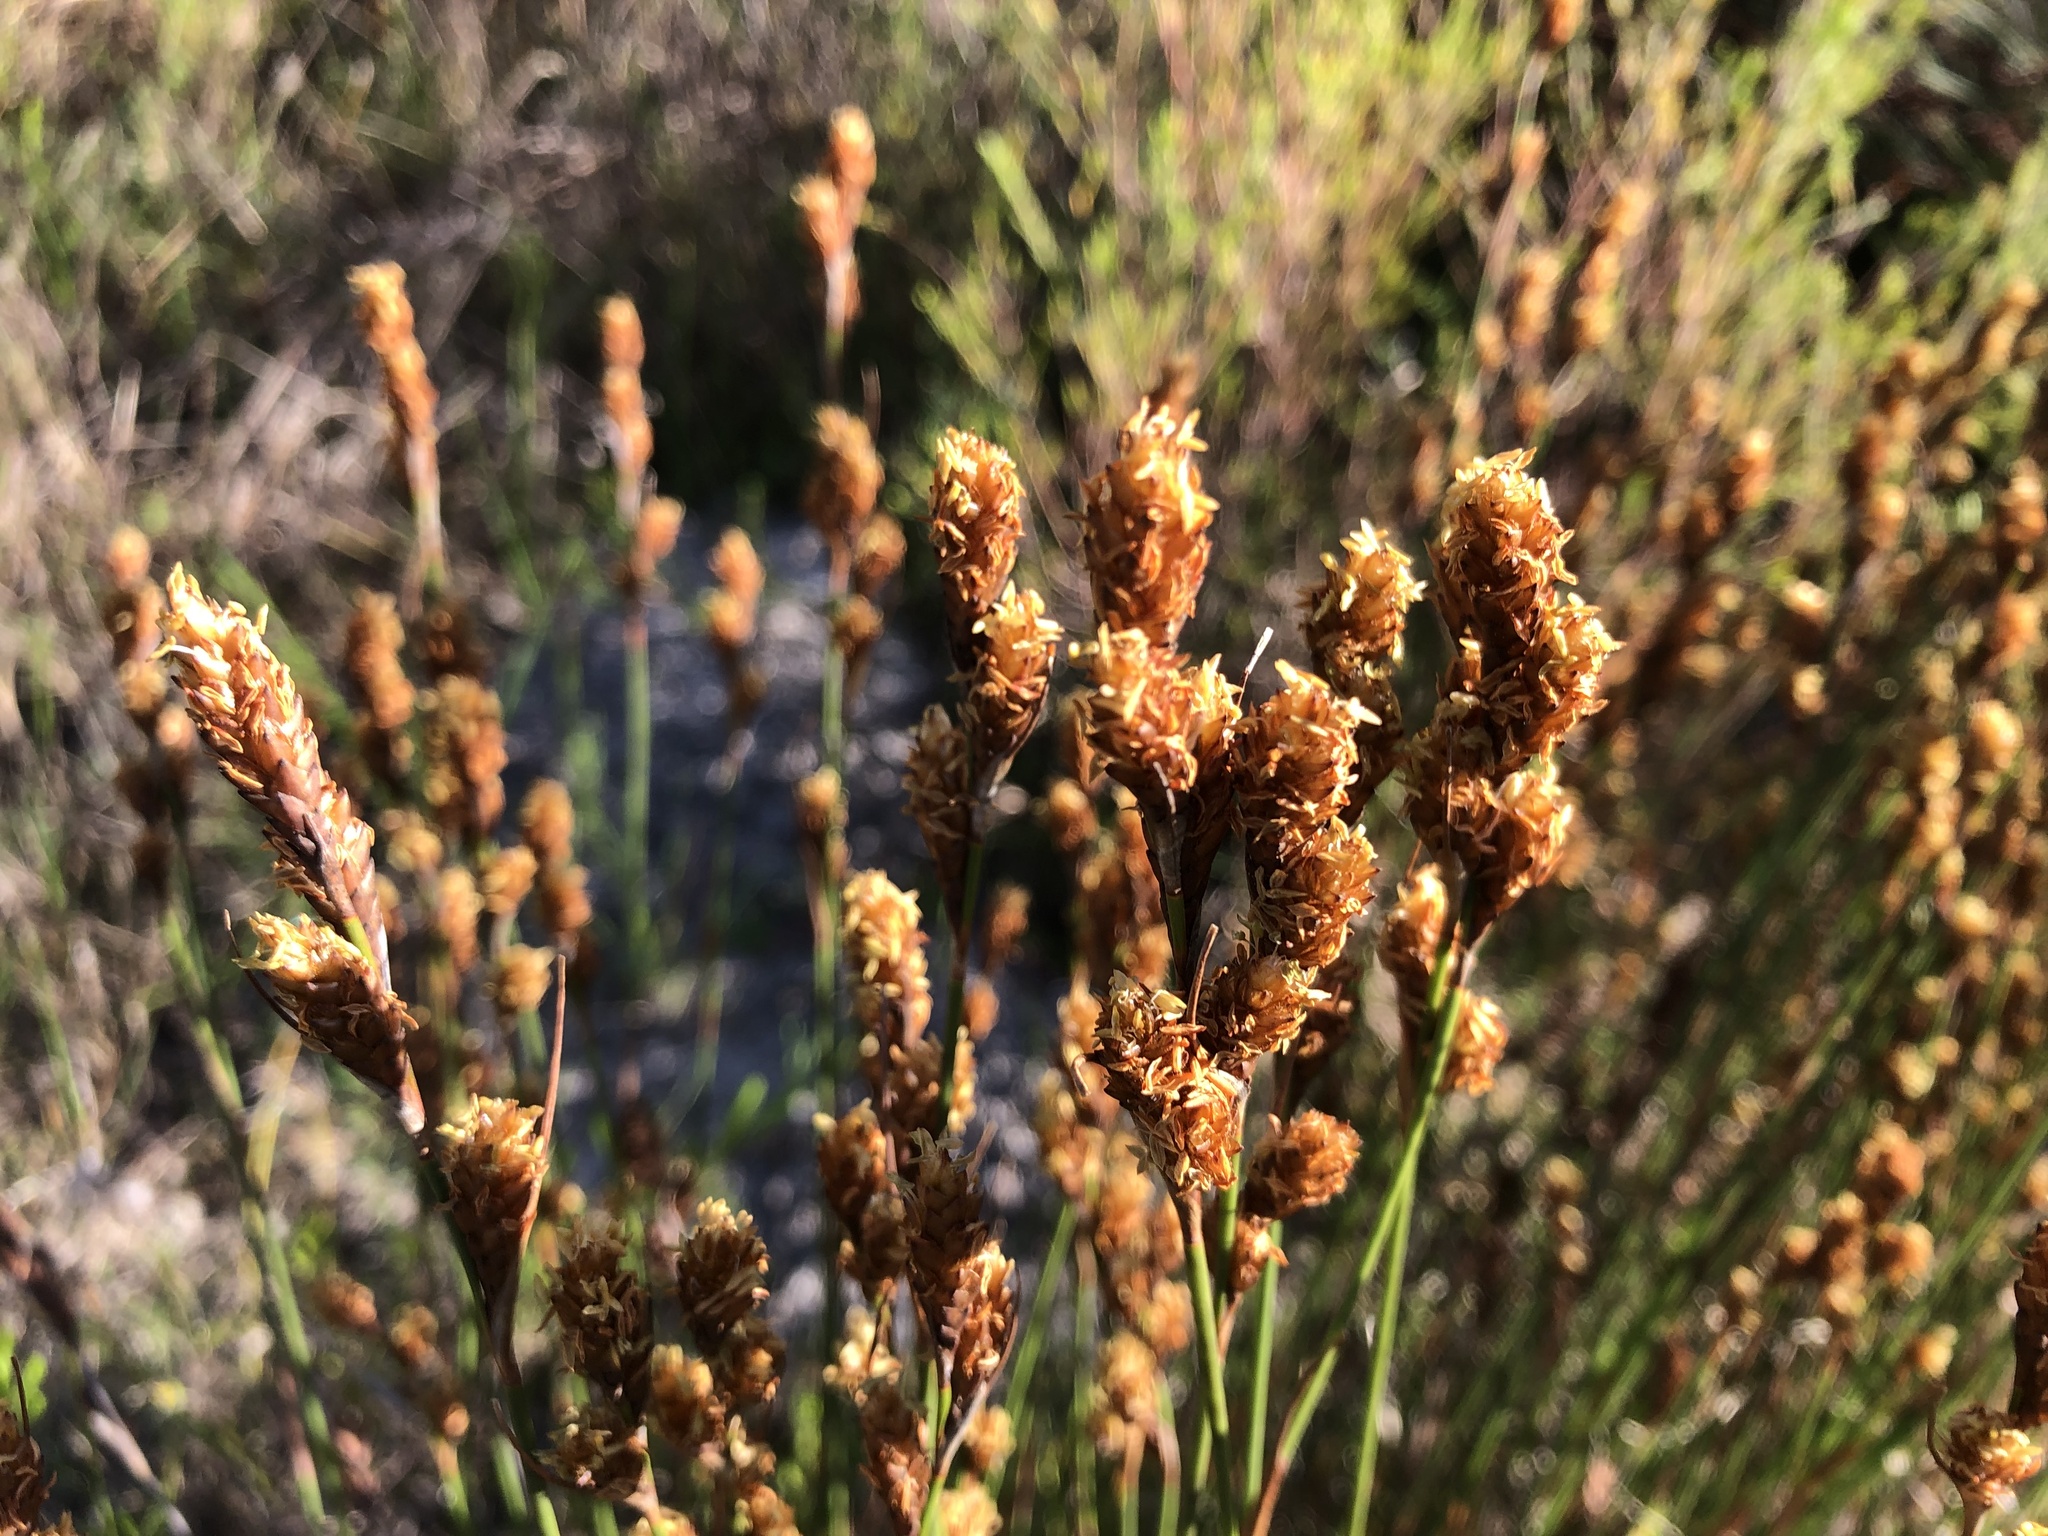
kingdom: Plantae
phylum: Tracheophyta
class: Liliopsida
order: Poales
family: Restionaceae
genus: Restio
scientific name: Restio quinquefarius
